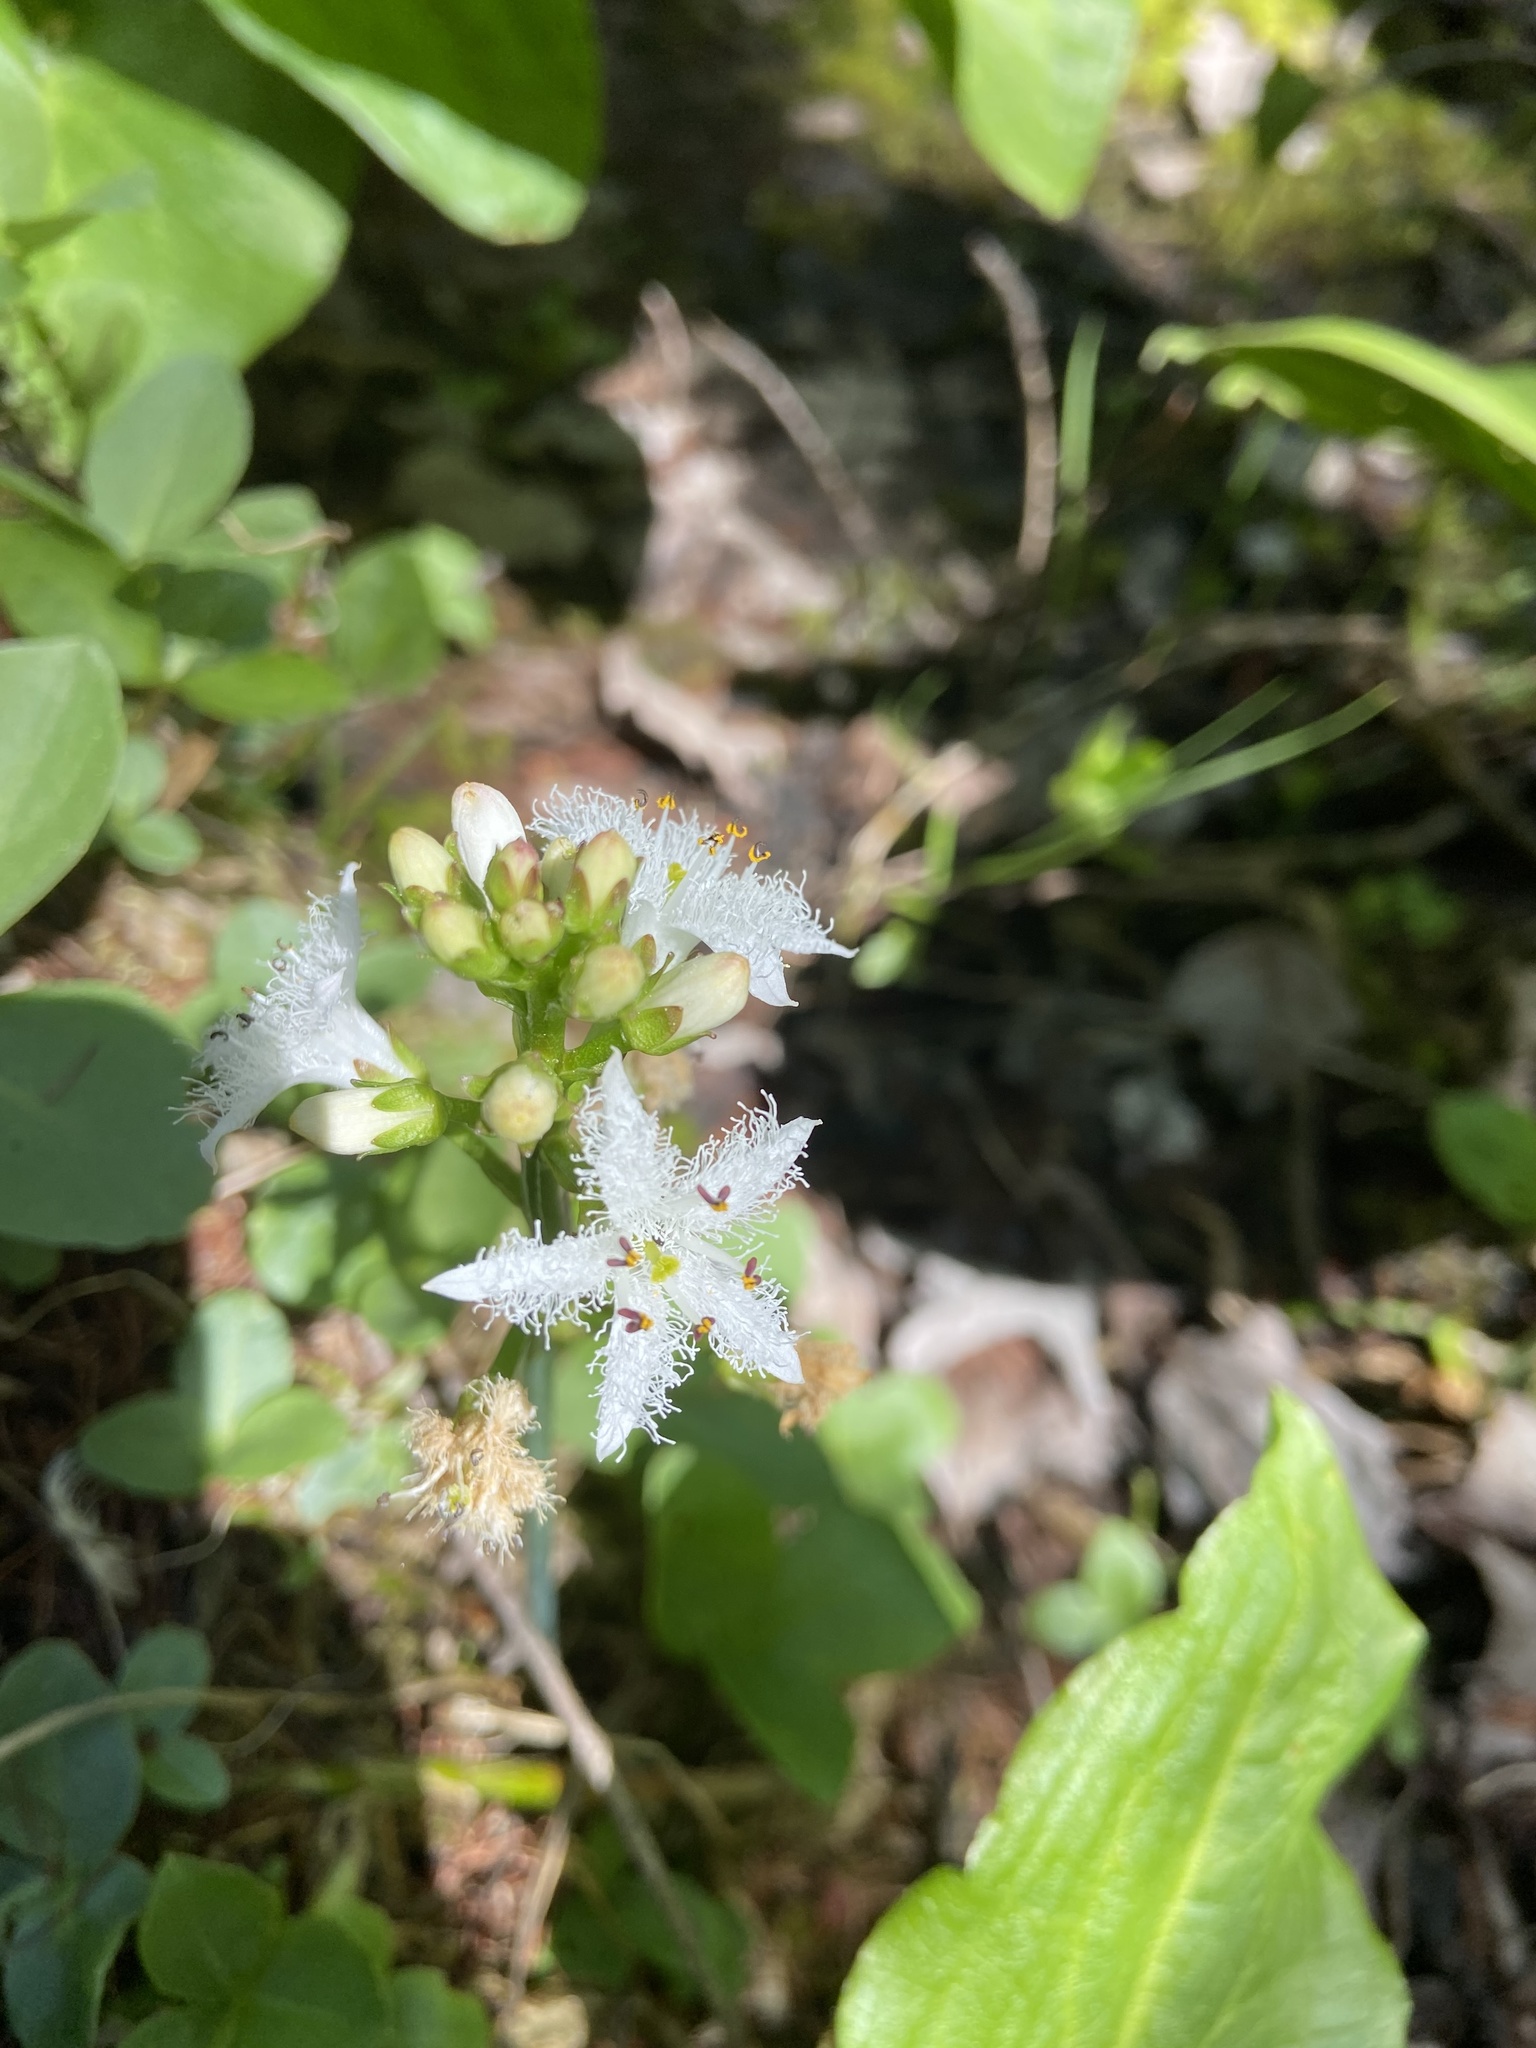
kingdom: Plantae
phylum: Tracheophyta
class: Magnoliopsida
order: Asterales
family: Menyanthaceae
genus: Menyanthes
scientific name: Menyanthes trifoliata
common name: Bogbean
